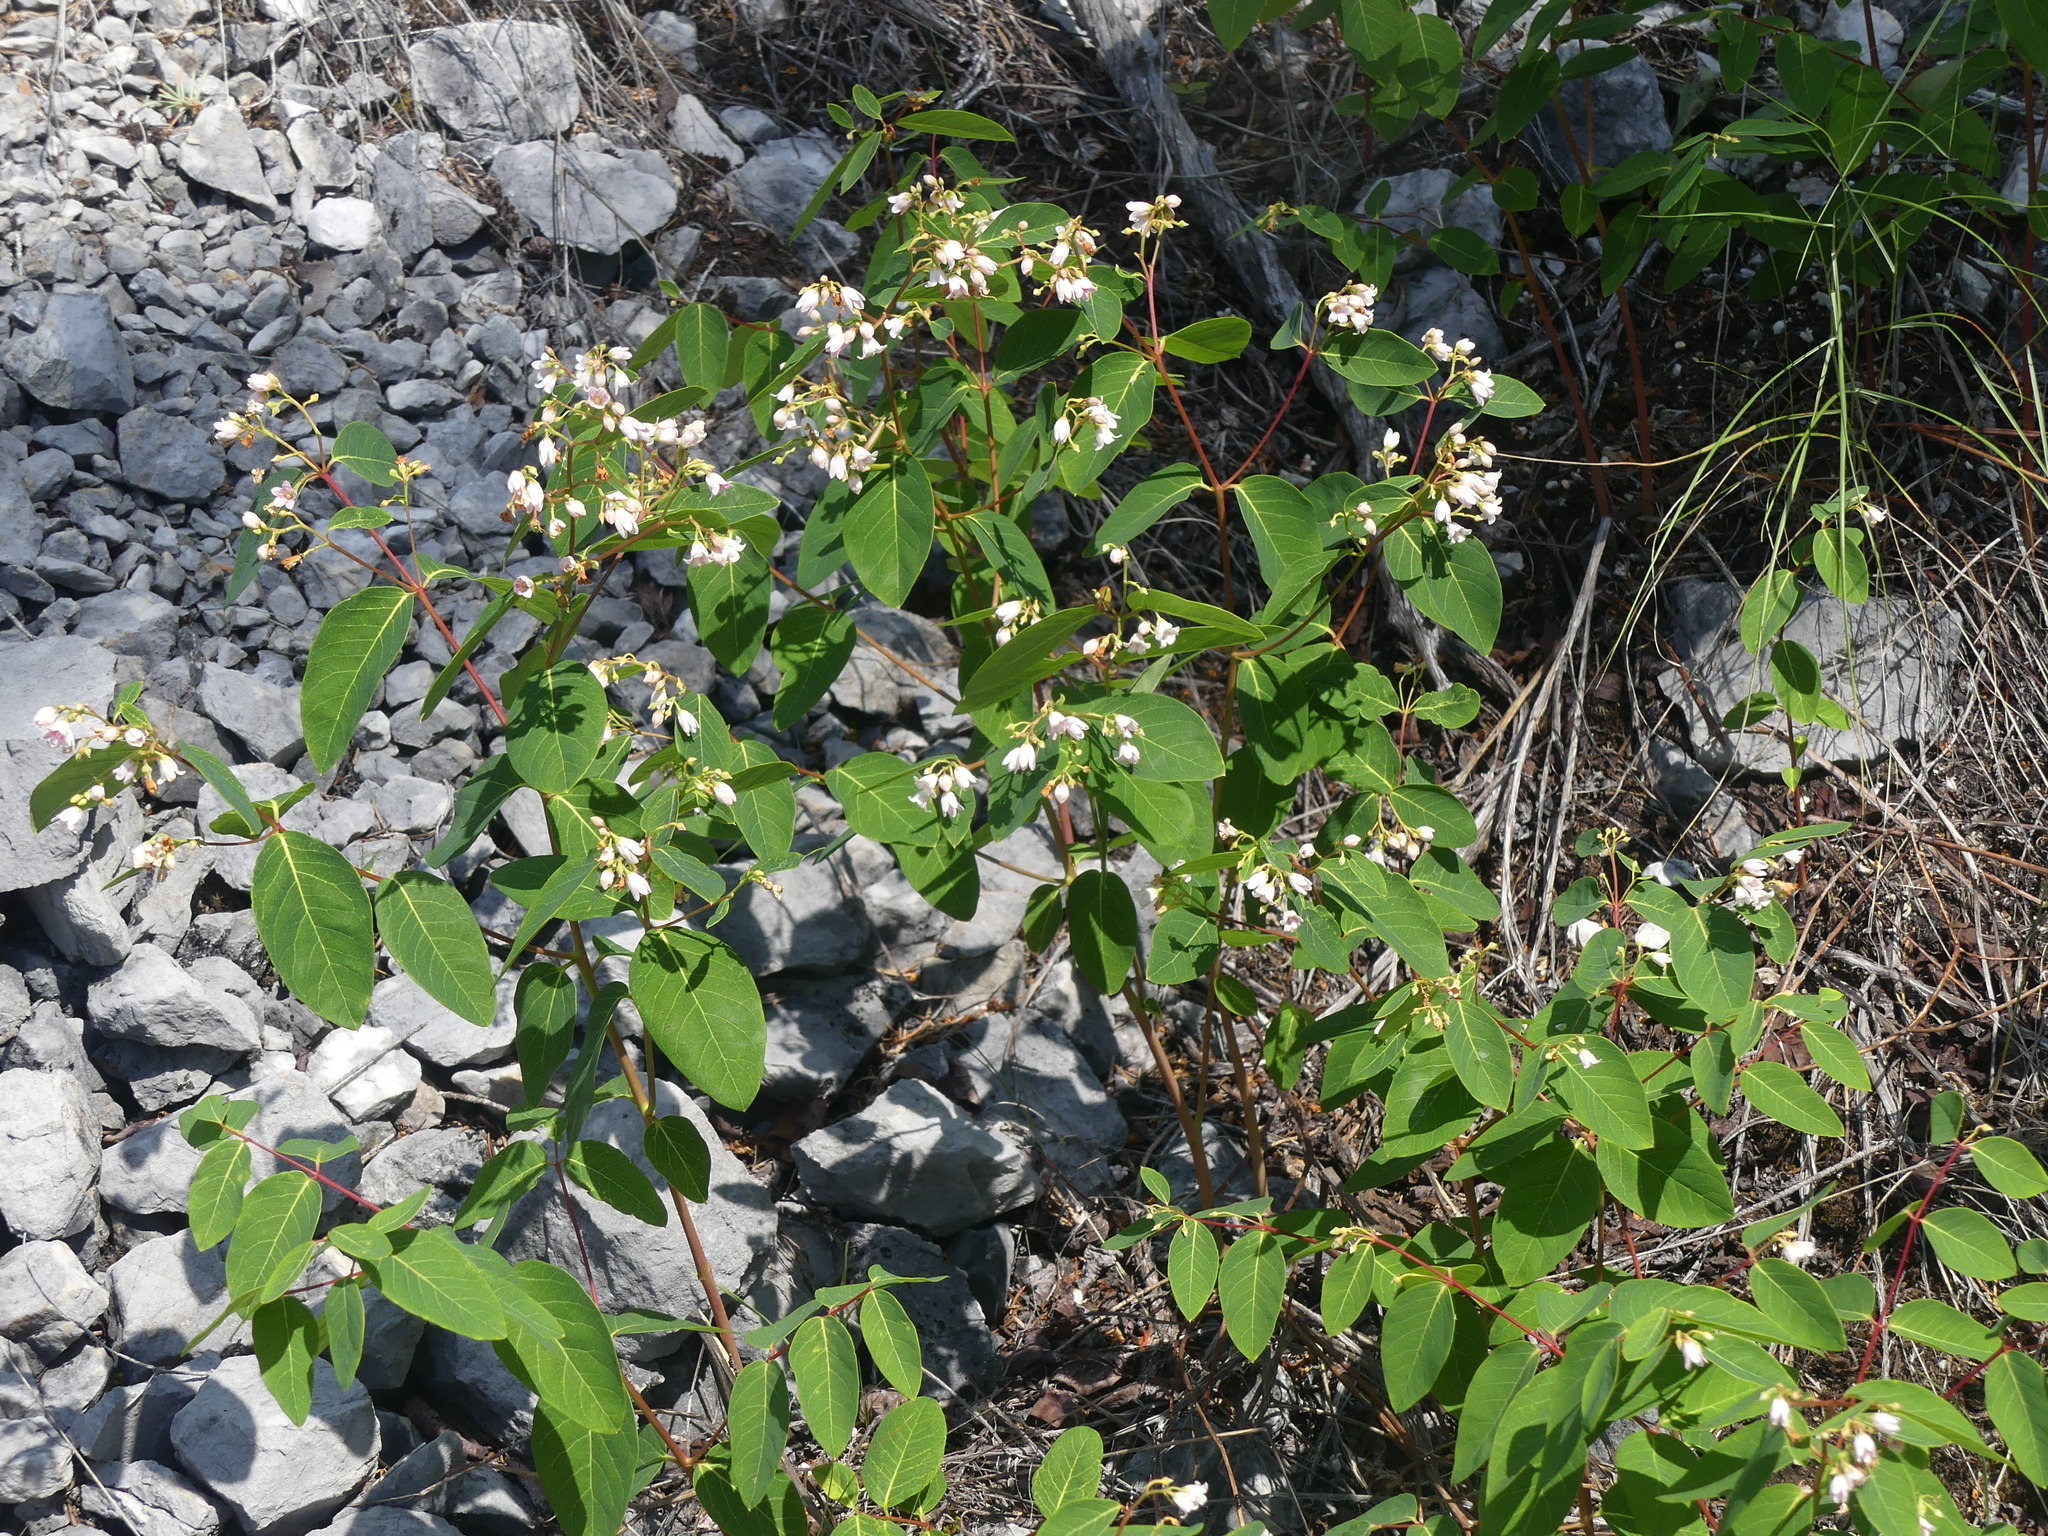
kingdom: Plantae
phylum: Tracheophyta
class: Magnoliopsida
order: Gentianales
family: Apocynaceae
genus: Apocynum
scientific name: Apocynum androsaemifolium
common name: Spreading dogbane
